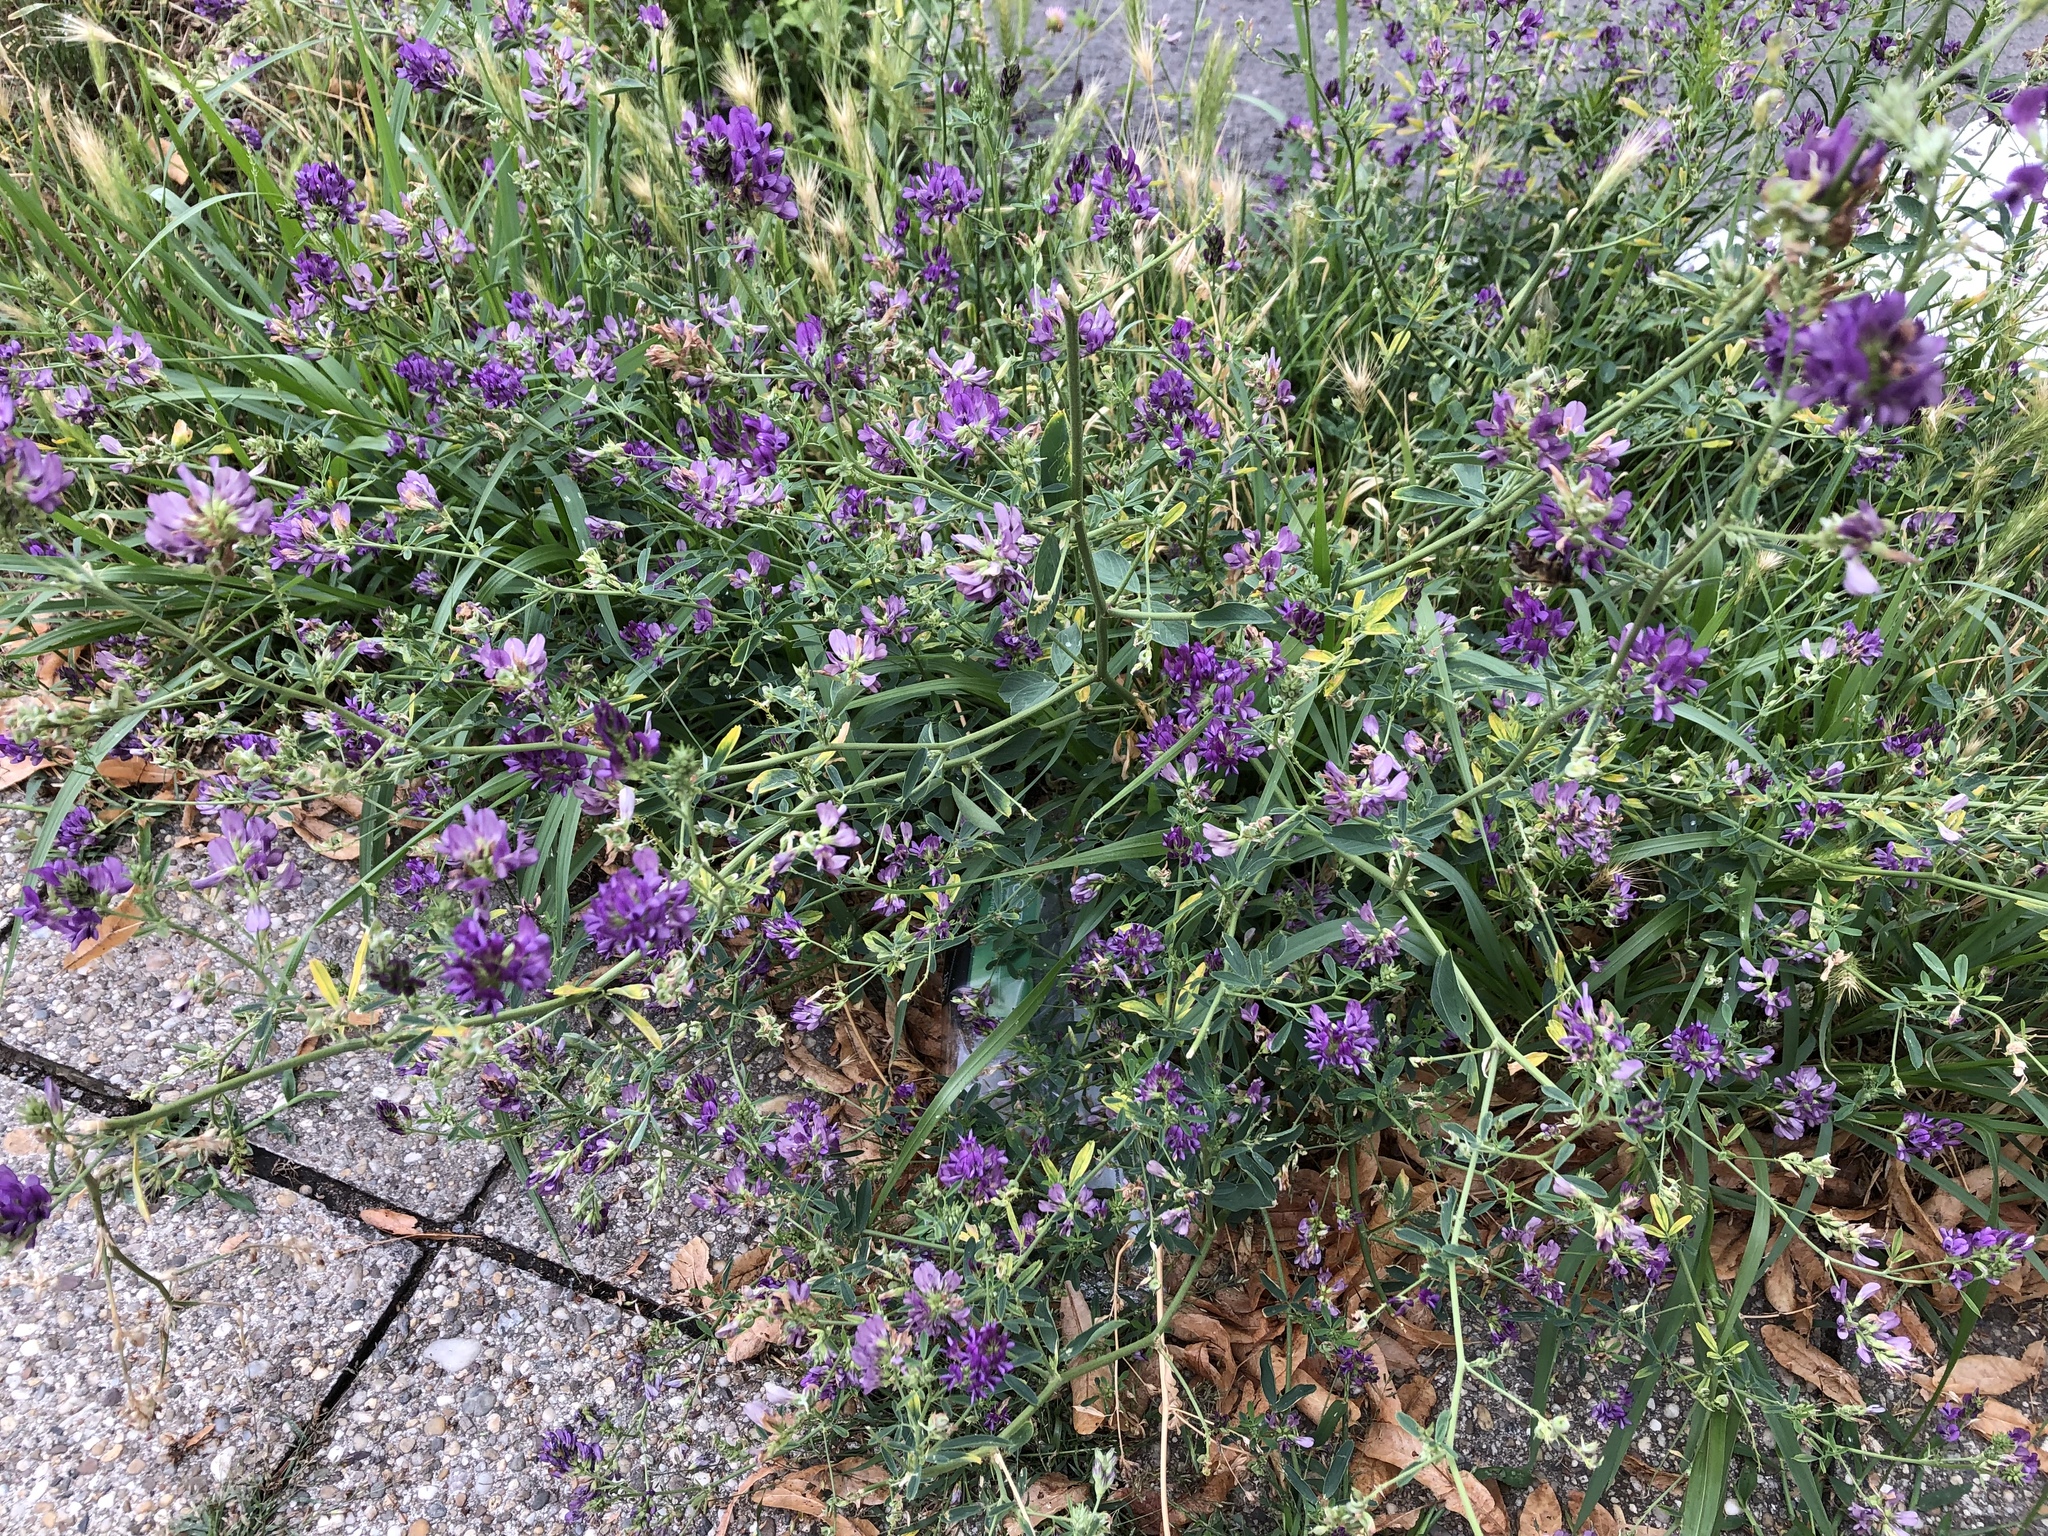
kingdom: Plantae
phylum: Tracheophyta
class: Magnoliopsida
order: Fabales
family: Fabaceae
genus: Medicago
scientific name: Medicago sativa
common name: Alfalfa
